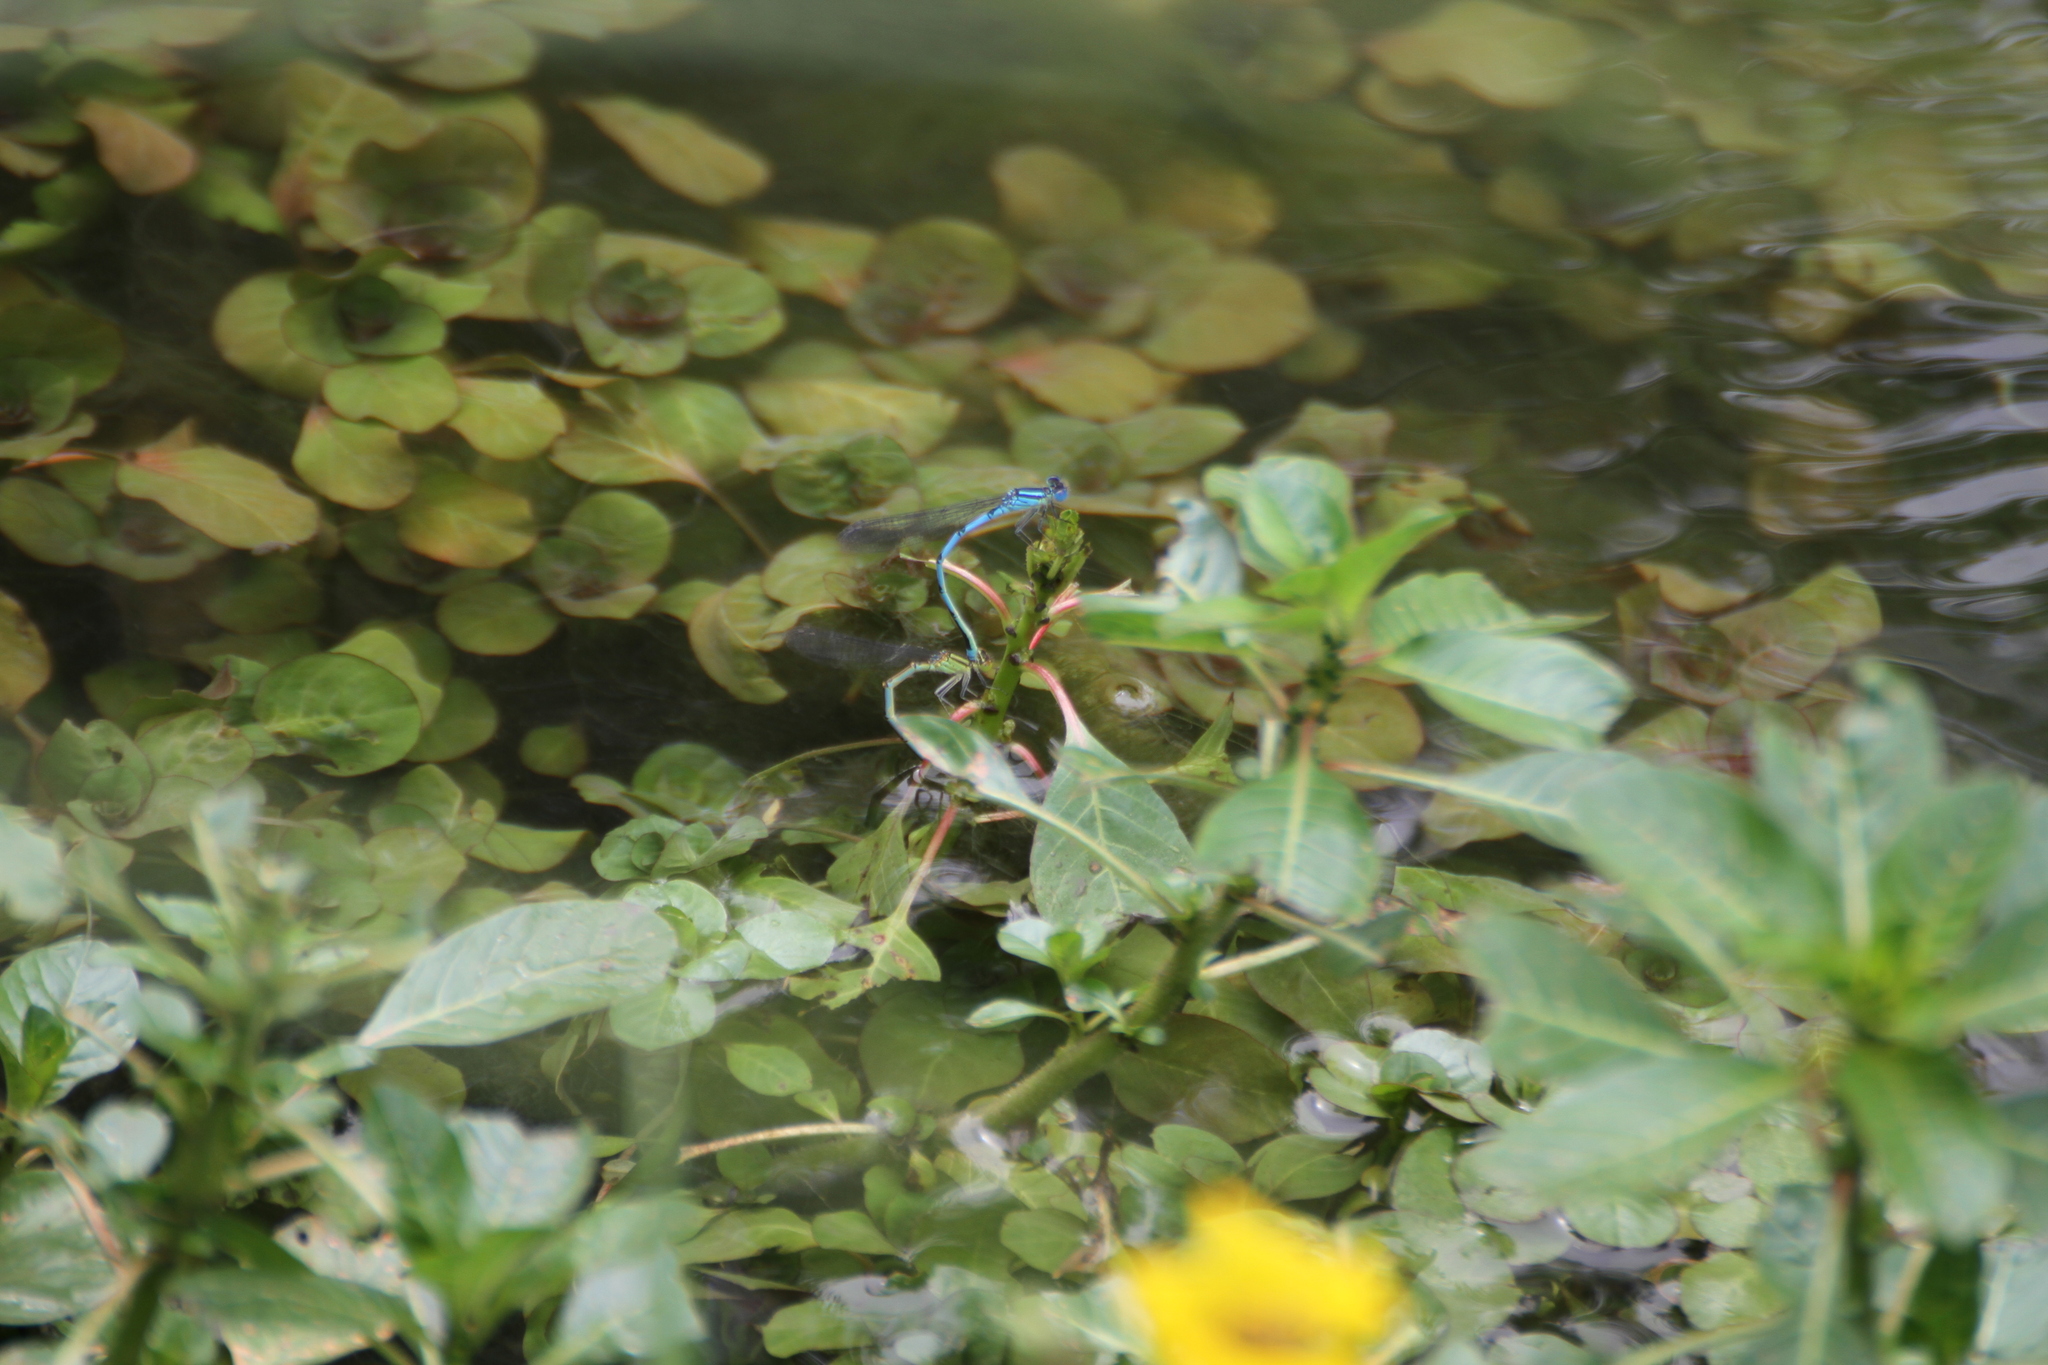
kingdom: Animalia
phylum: Arthropoda
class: Insecta
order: Odonata
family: Coenagrionidae
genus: Erythromma
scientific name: Erythromma lindenii
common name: Blue-eye
